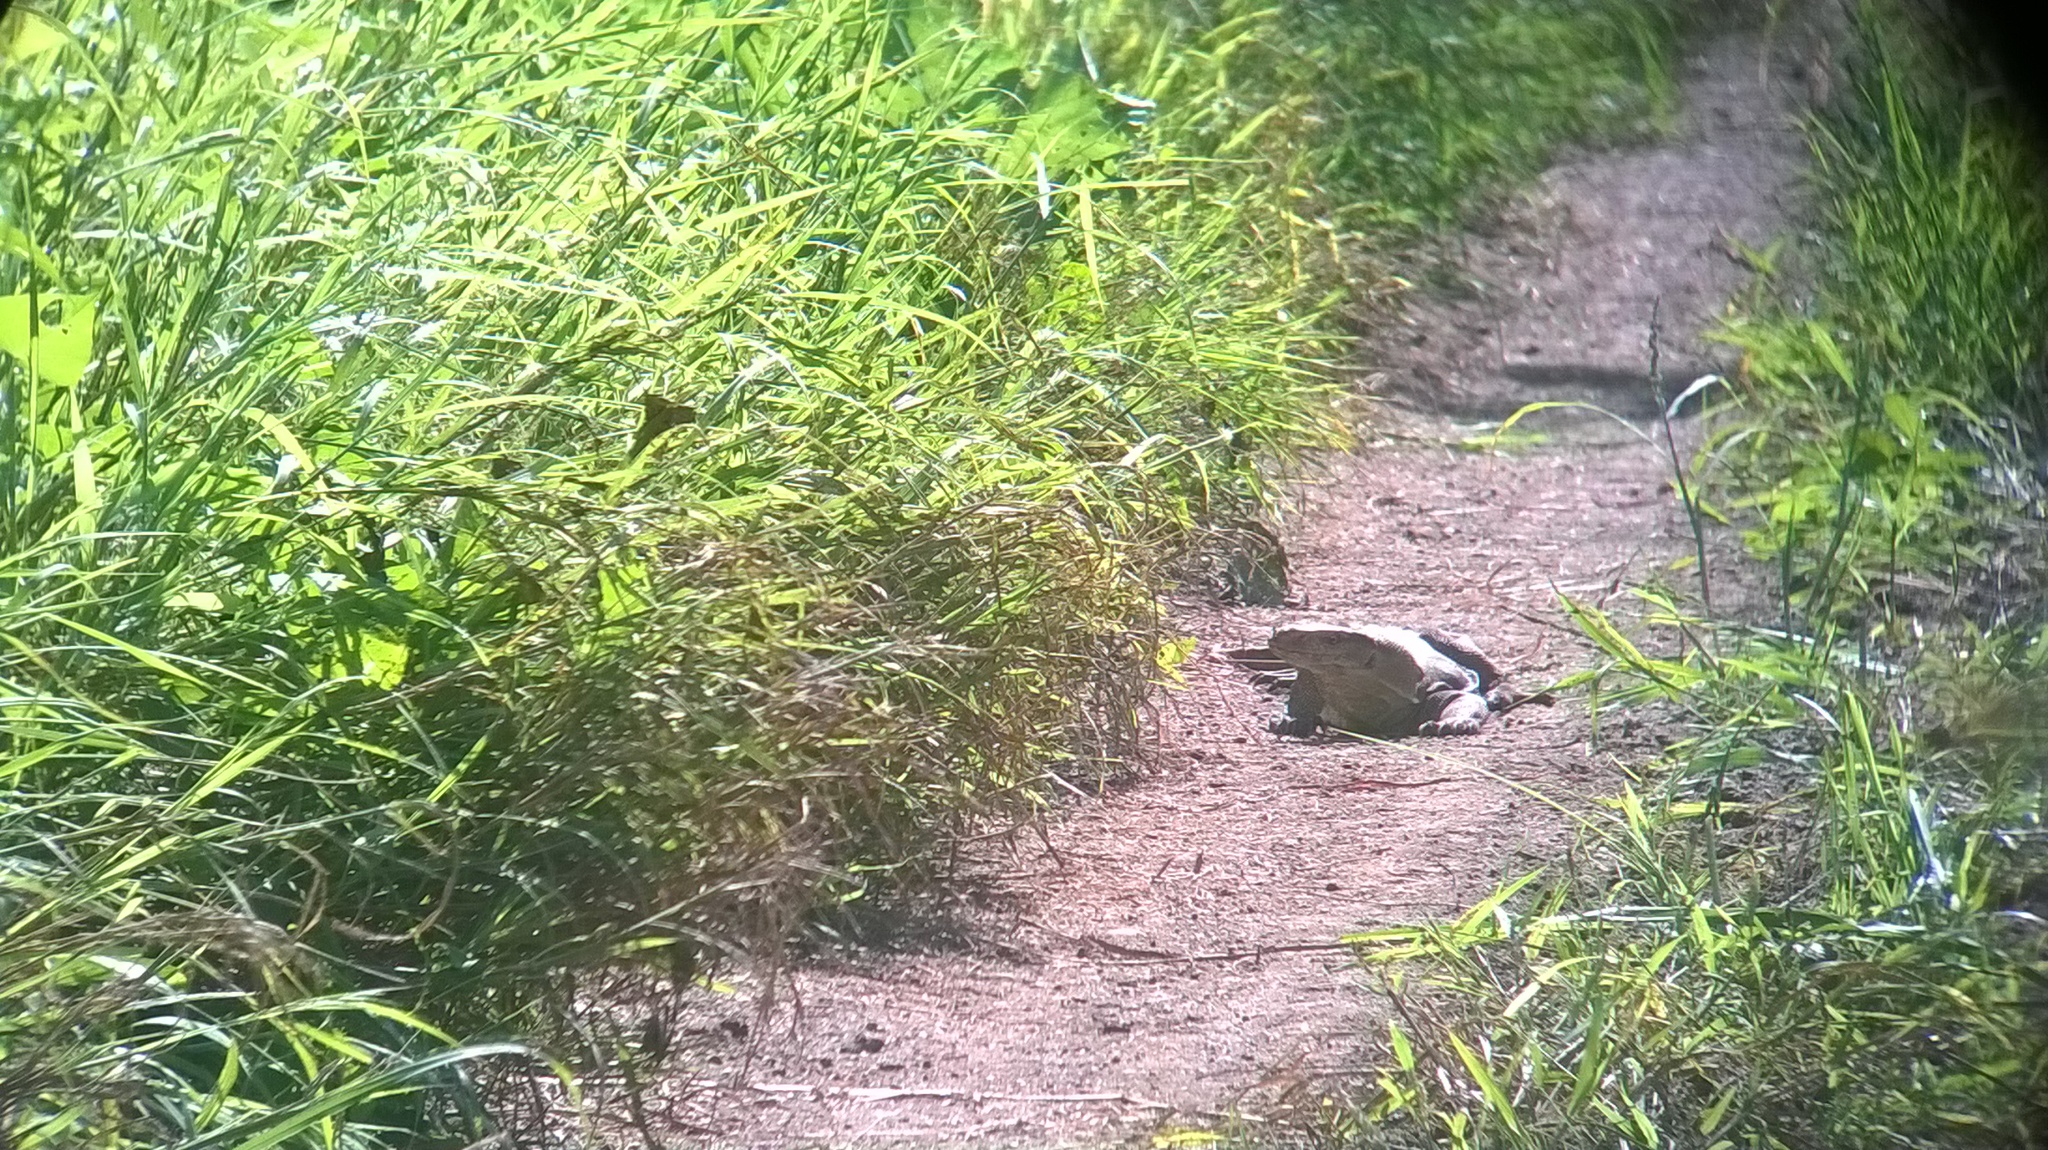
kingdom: Animalia
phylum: Chordata
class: Squamata
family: Varanidae
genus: Varanus
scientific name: Varanus bengalensis
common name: Bengal monitor
